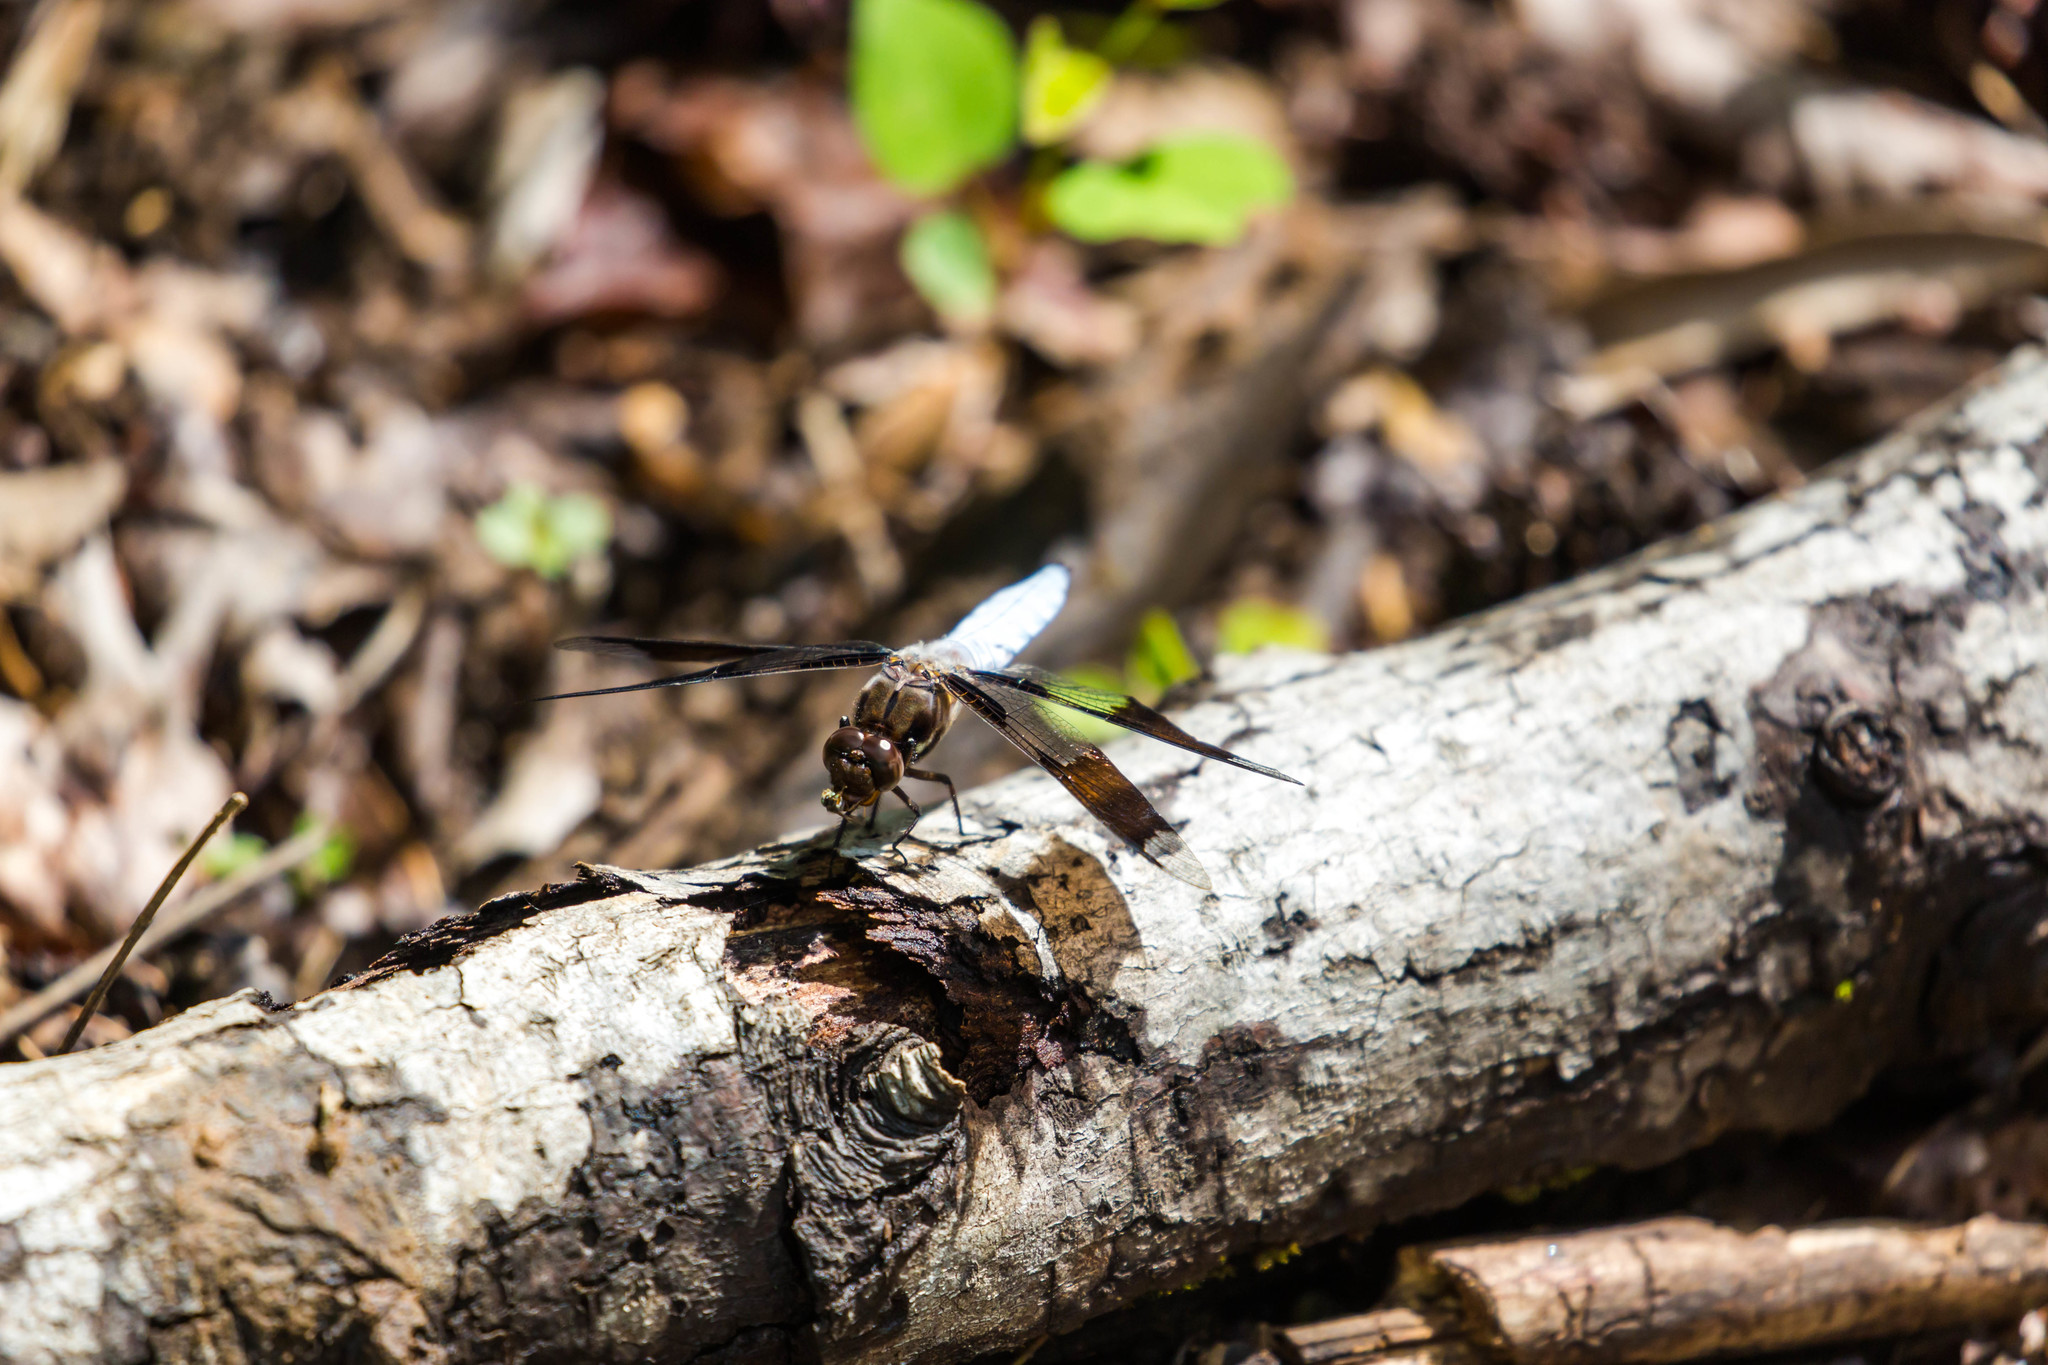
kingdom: Animalia
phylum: Arthropoda
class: Insecta
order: Odonata
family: Libellulidae
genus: Plathemis
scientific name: Plathemis lydia
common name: Common whitetail
